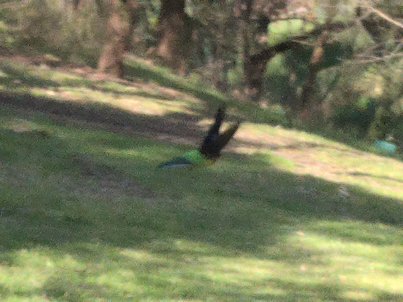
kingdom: Animalia
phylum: Chordata
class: Aves
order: Psittaciformes
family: Psittacidae
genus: Platycercus
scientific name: Platycercus eximius
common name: Eastern rosella
